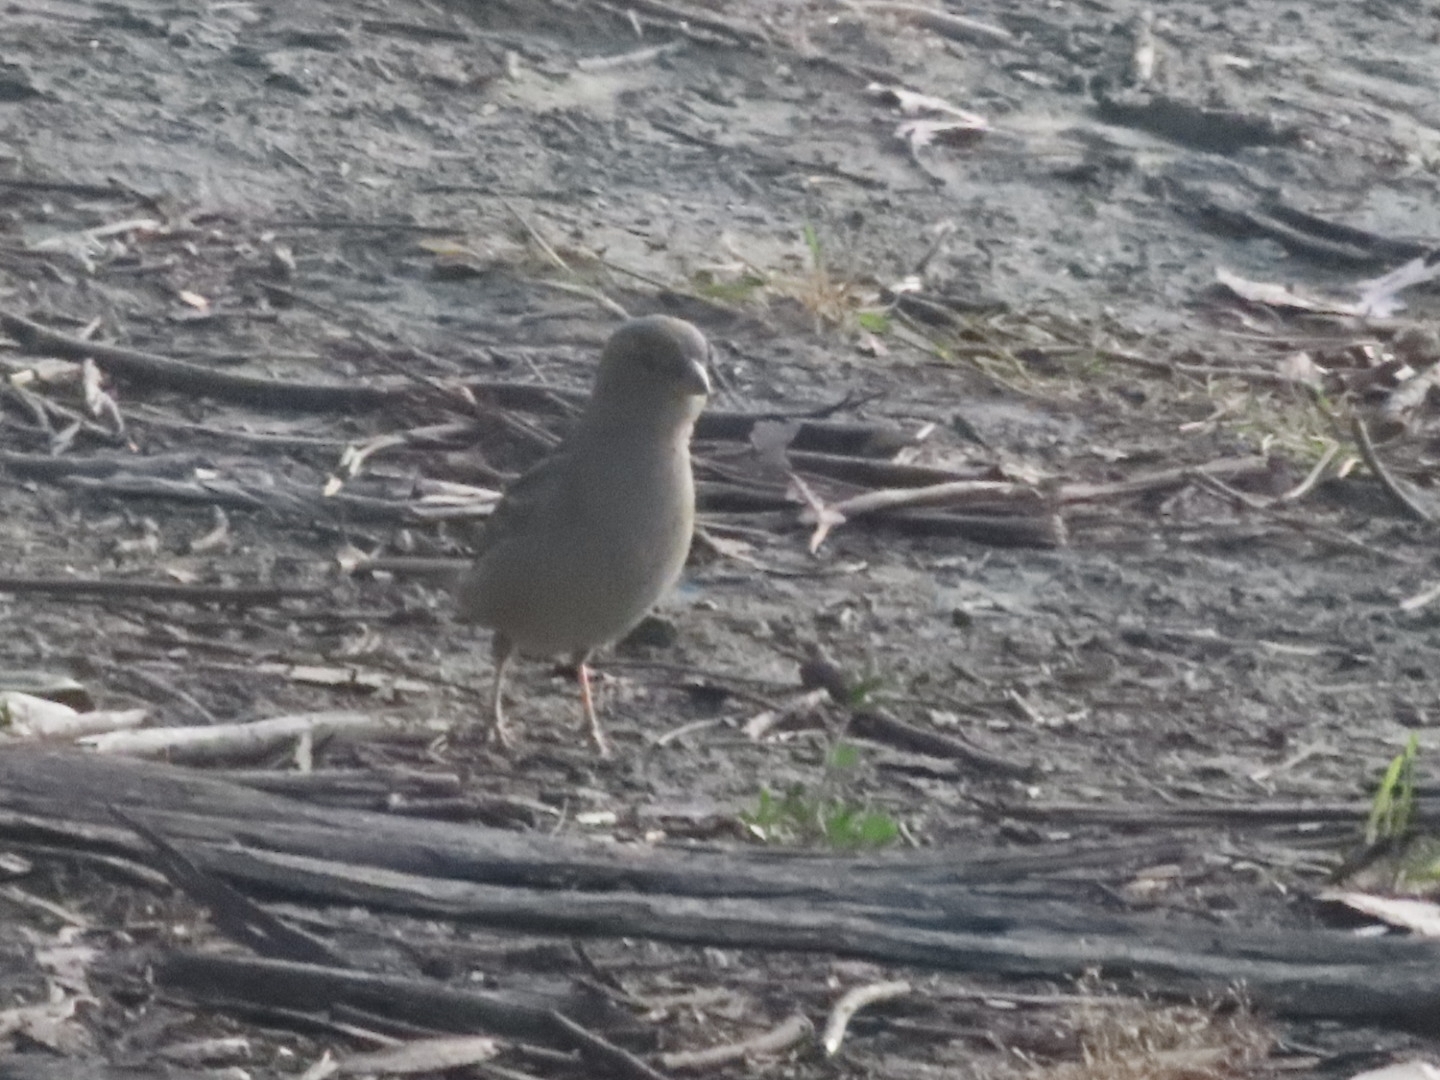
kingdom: Animalia
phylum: Chordata
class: Aves
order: Passeriformes
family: Passeridae
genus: Passer
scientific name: Passer domesticus
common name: House sparrow
